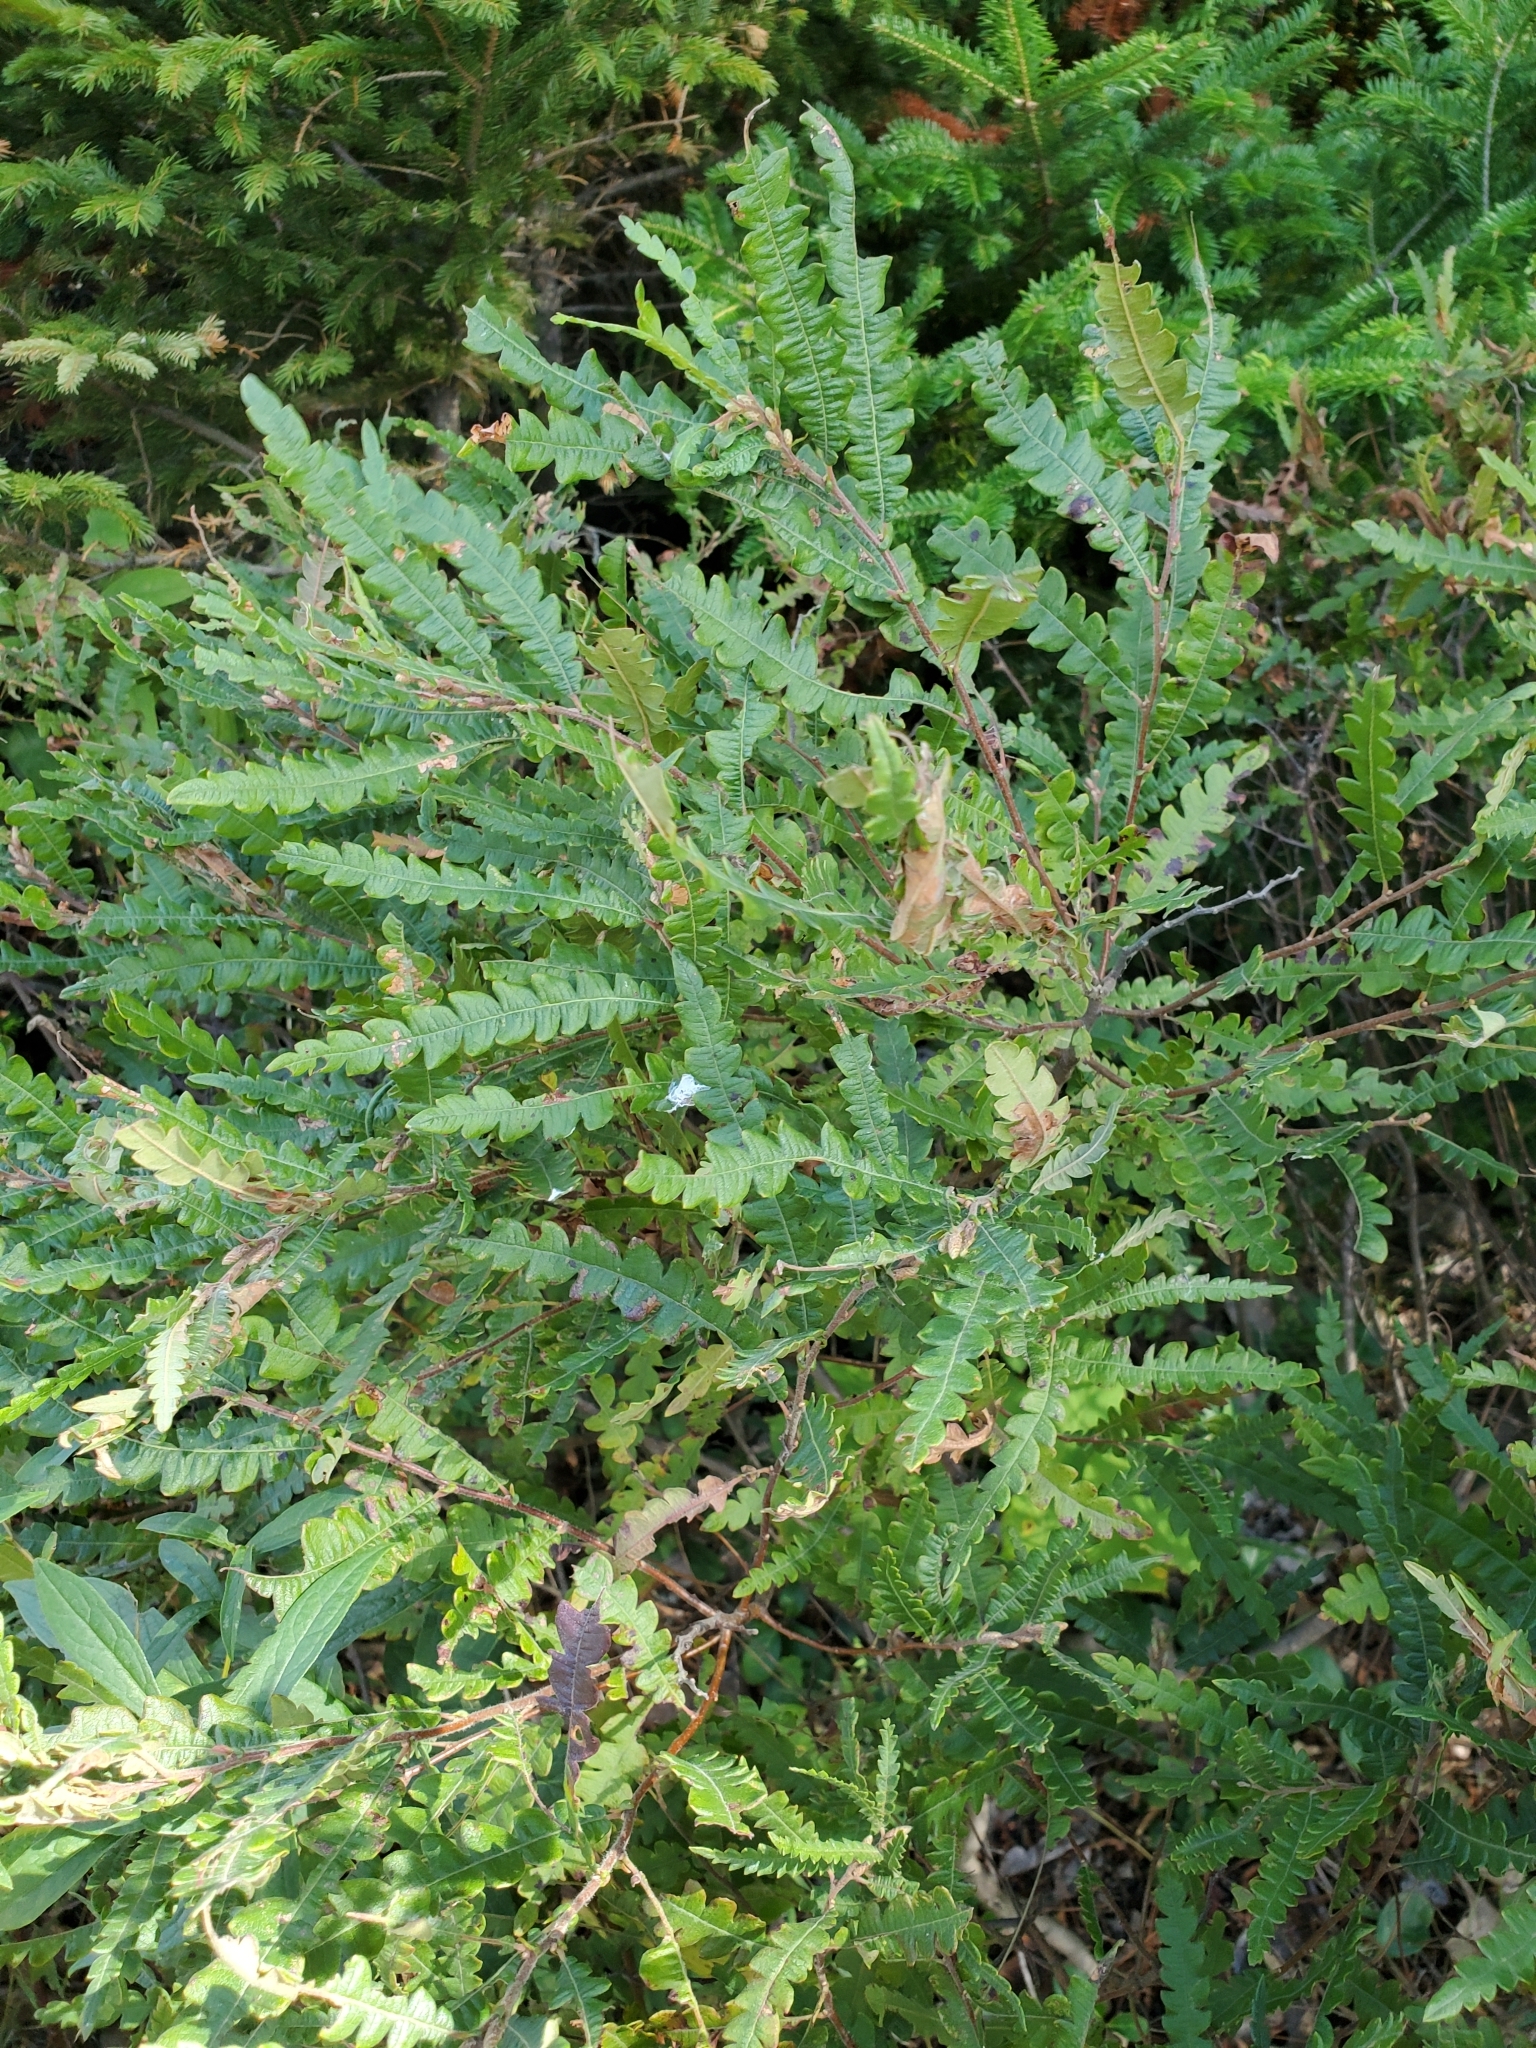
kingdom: Plantae
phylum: Tracheophyta
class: Magnoliopsida
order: Fagales
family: Myricaceae
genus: Comptonia
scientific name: Comptonia peregrina
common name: Sweet-fern
